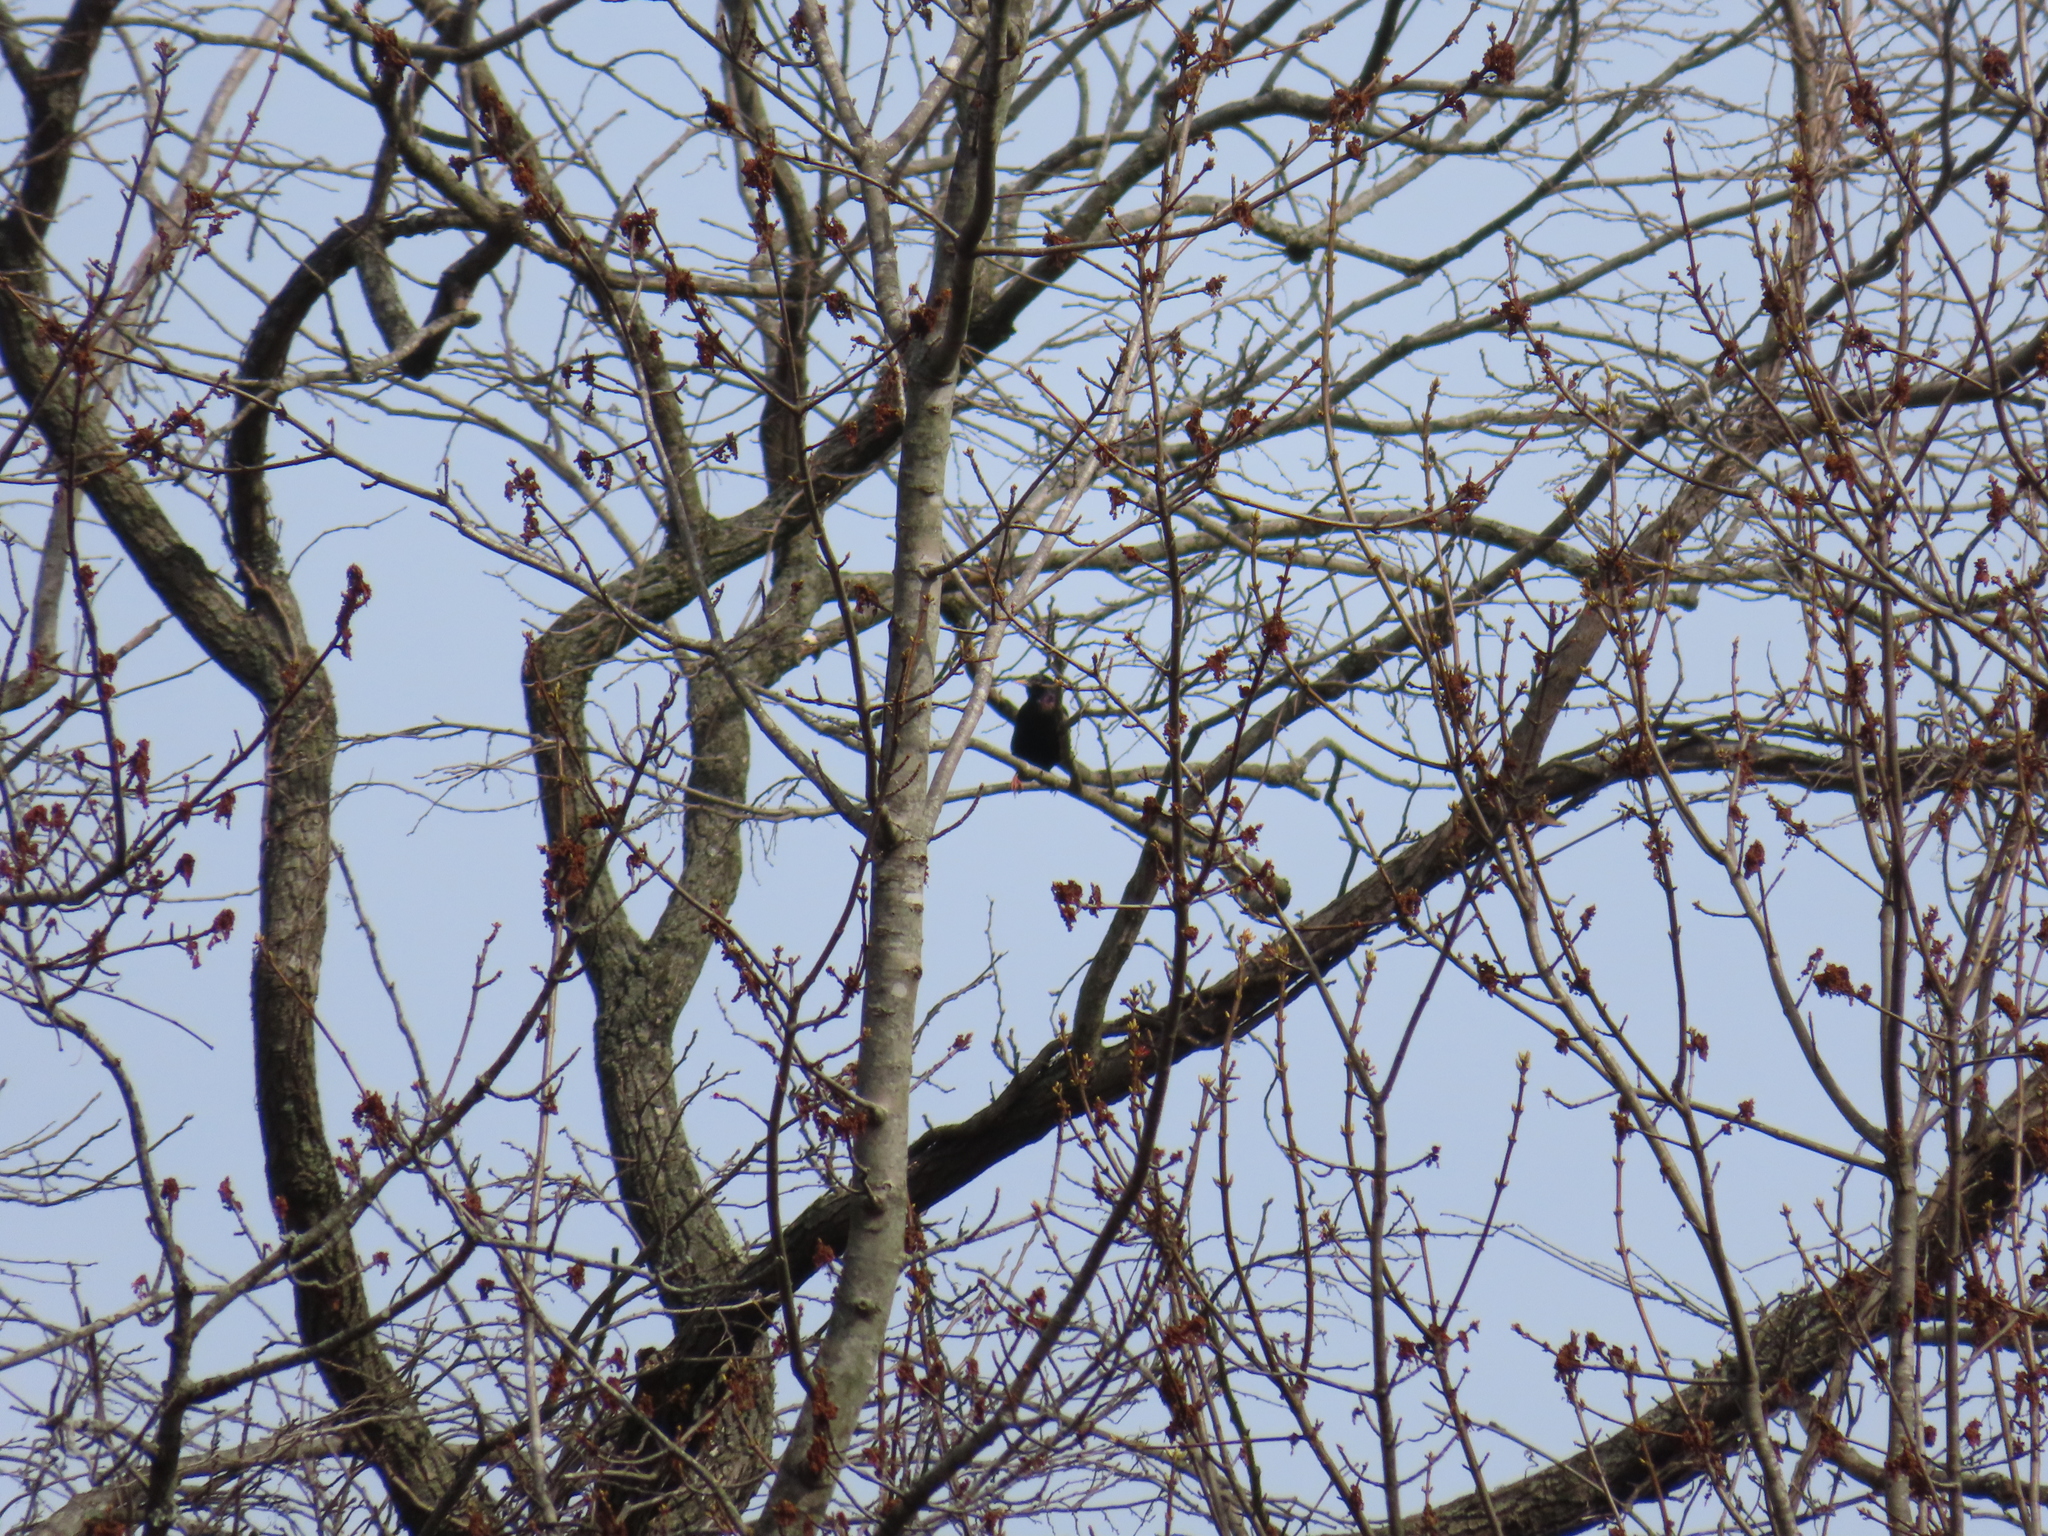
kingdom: Animalia
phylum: Chordata
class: Aves
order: Passeriformes
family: Sturnidae
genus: Sturnus
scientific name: Sturnus vulgaris
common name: Common starling
